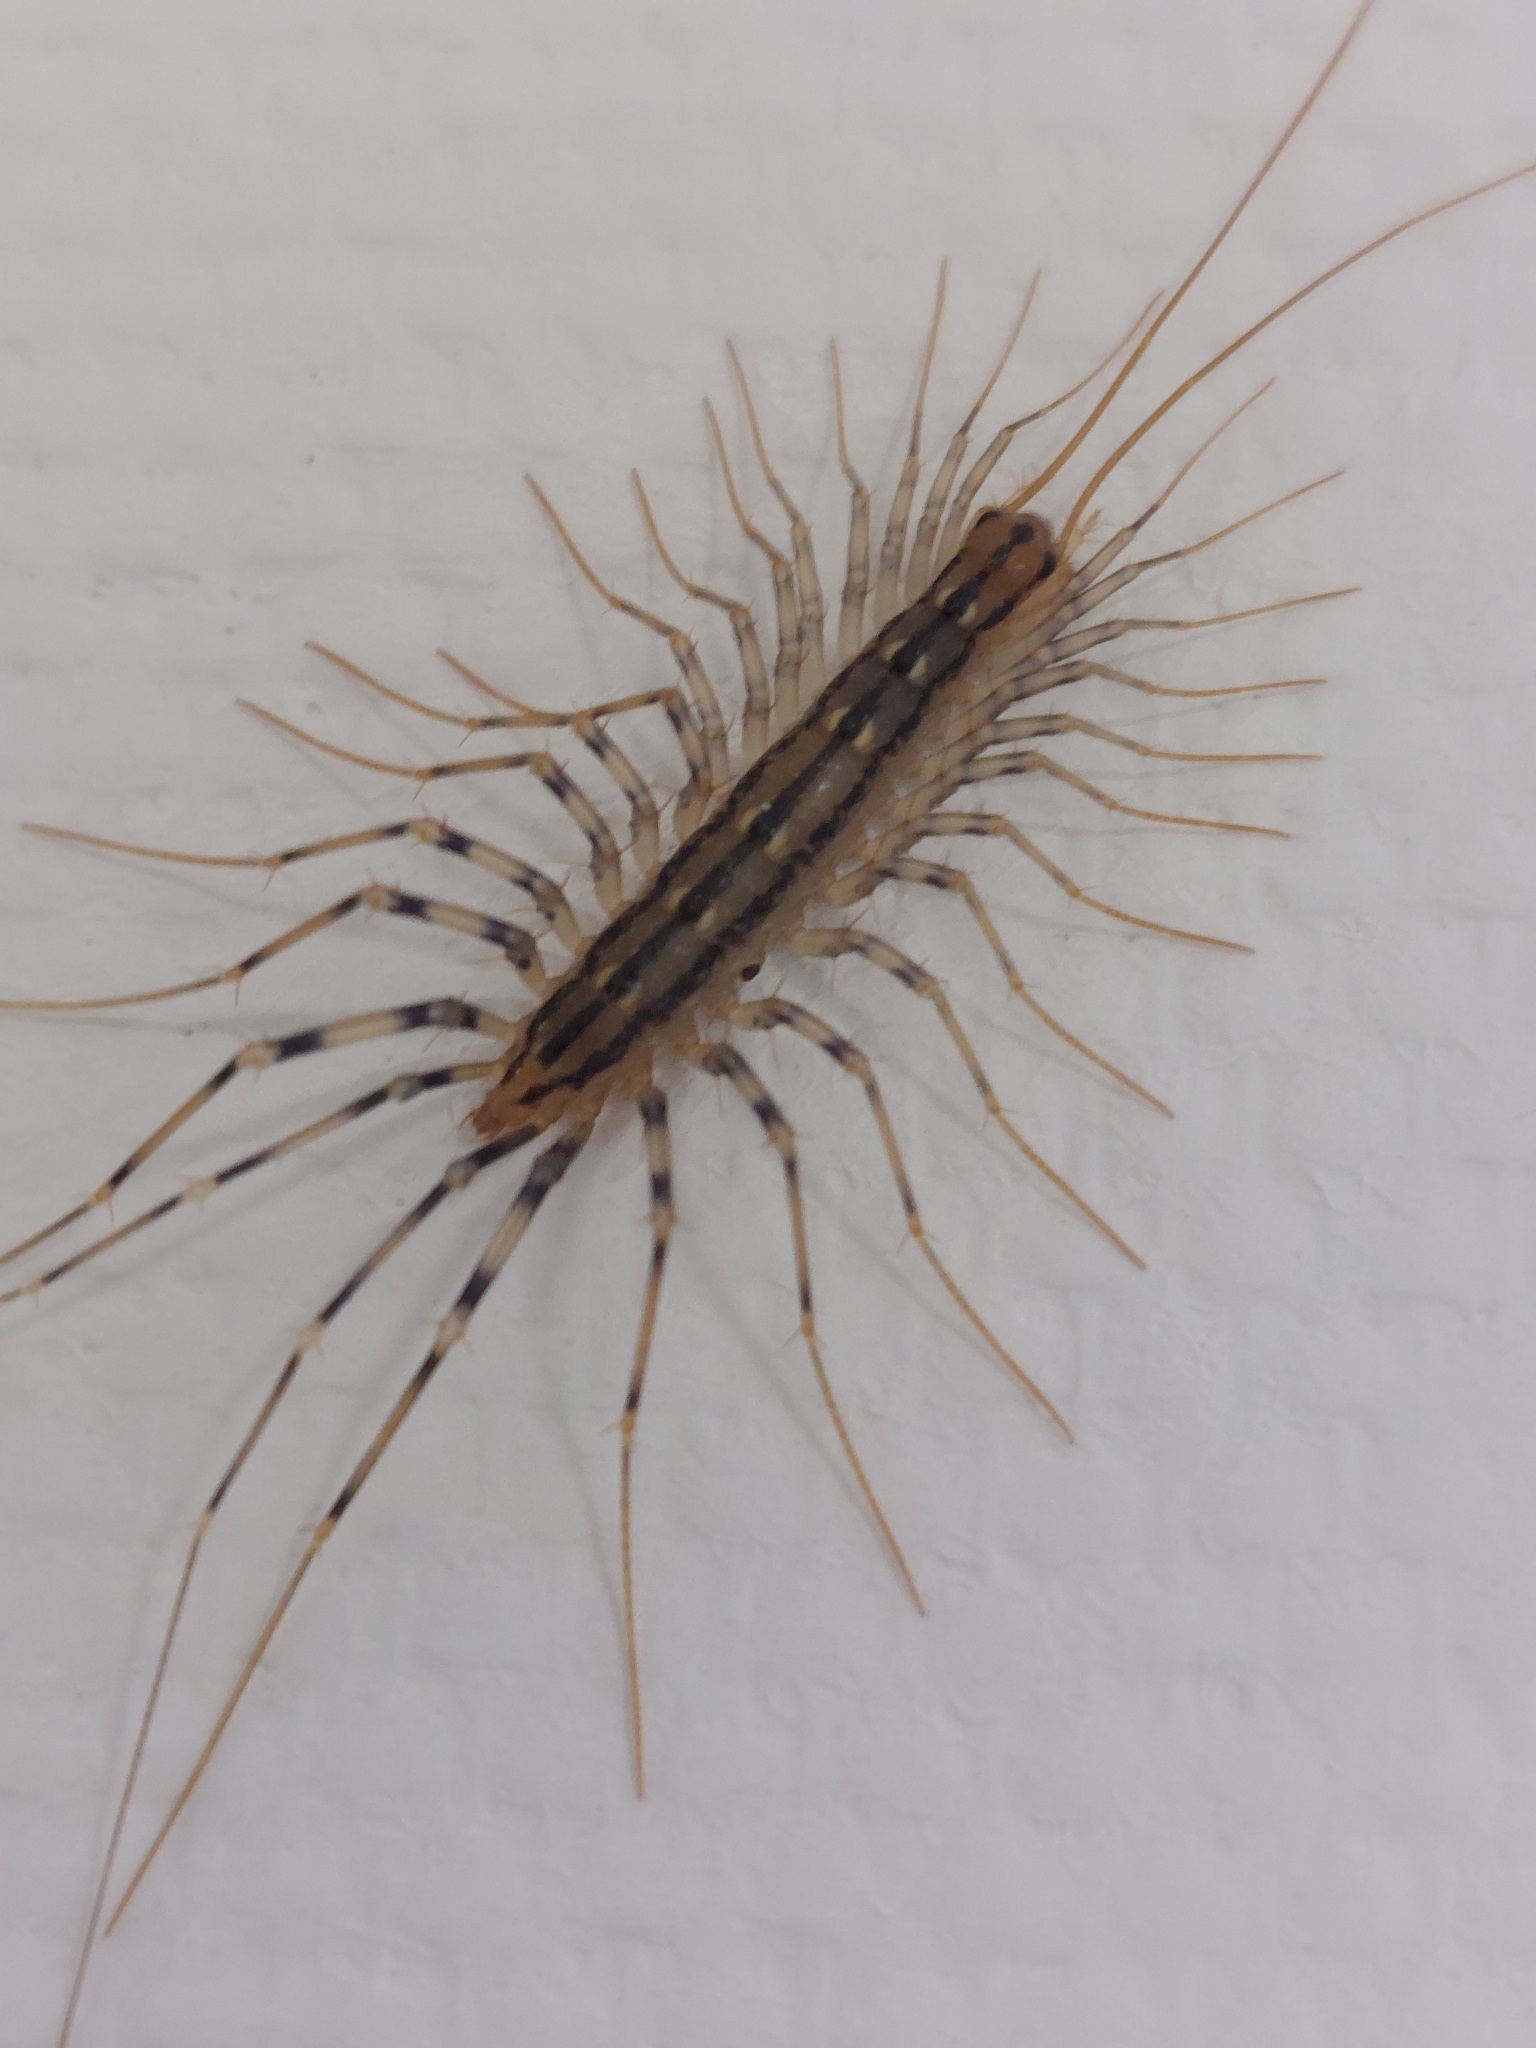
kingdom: Animalia
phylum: Arthropoda
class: Chilopoda
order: Scutigeromorpha
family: Scutigeridae
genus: Scutigera
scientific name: Scutigera coleoptrata
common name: House centipede
